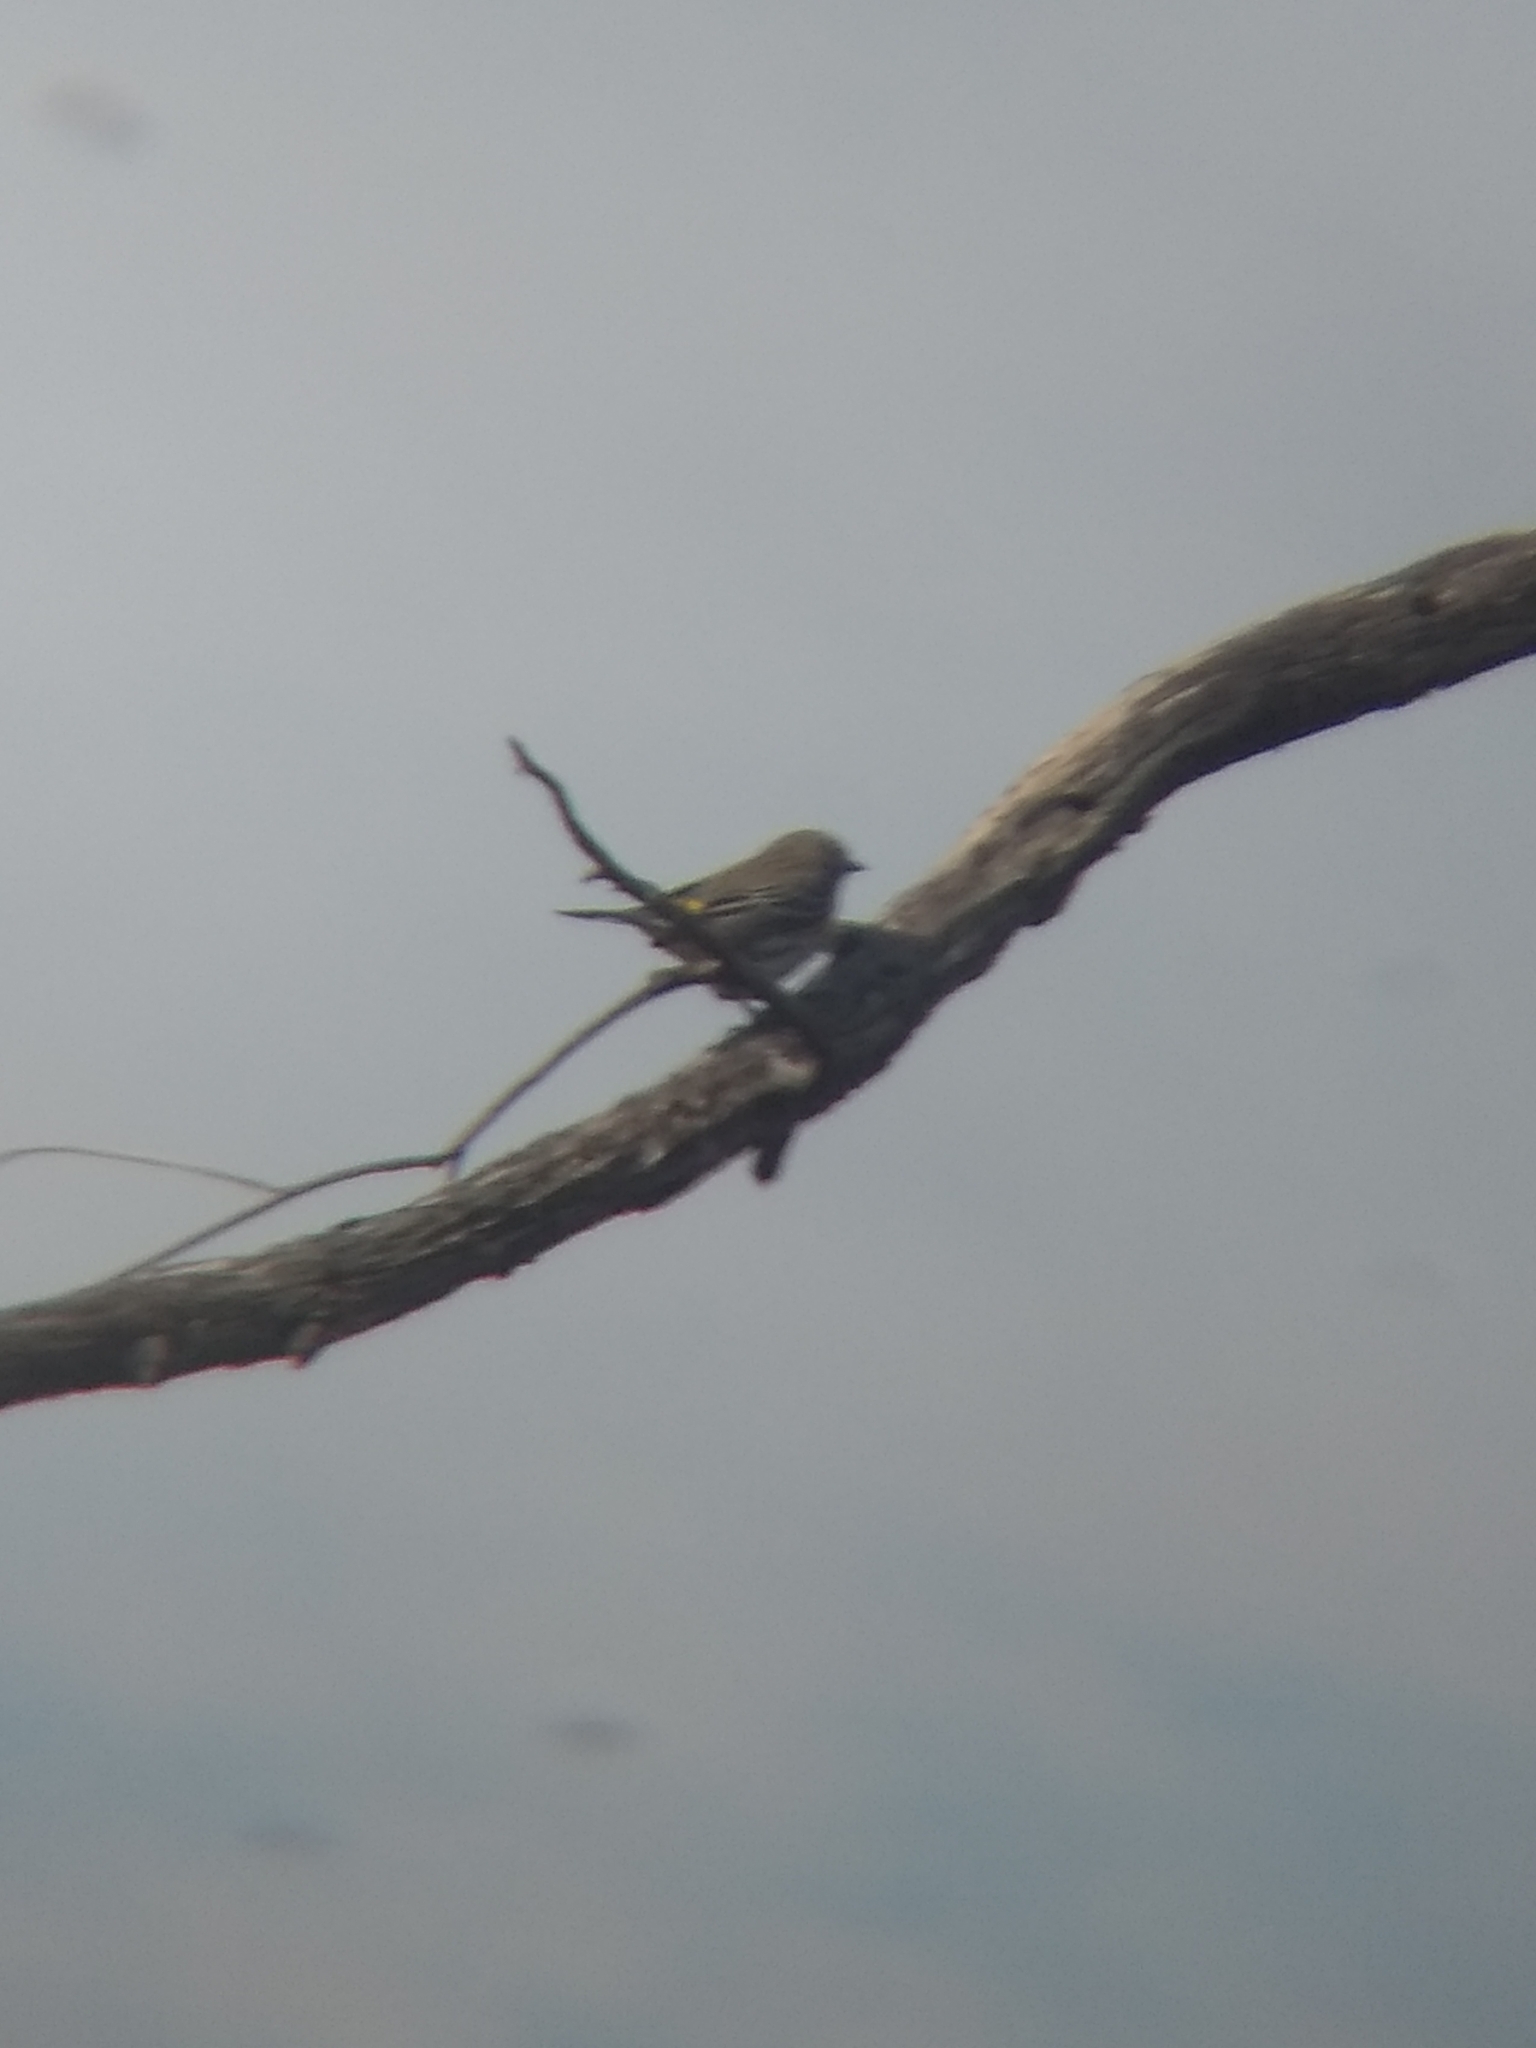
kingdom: Animalia
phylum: Chordata
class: Aves
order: Passeriformes
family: Parulidae
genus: Setophaga
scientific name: Setophaga coronata
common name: Myrtle warbler
